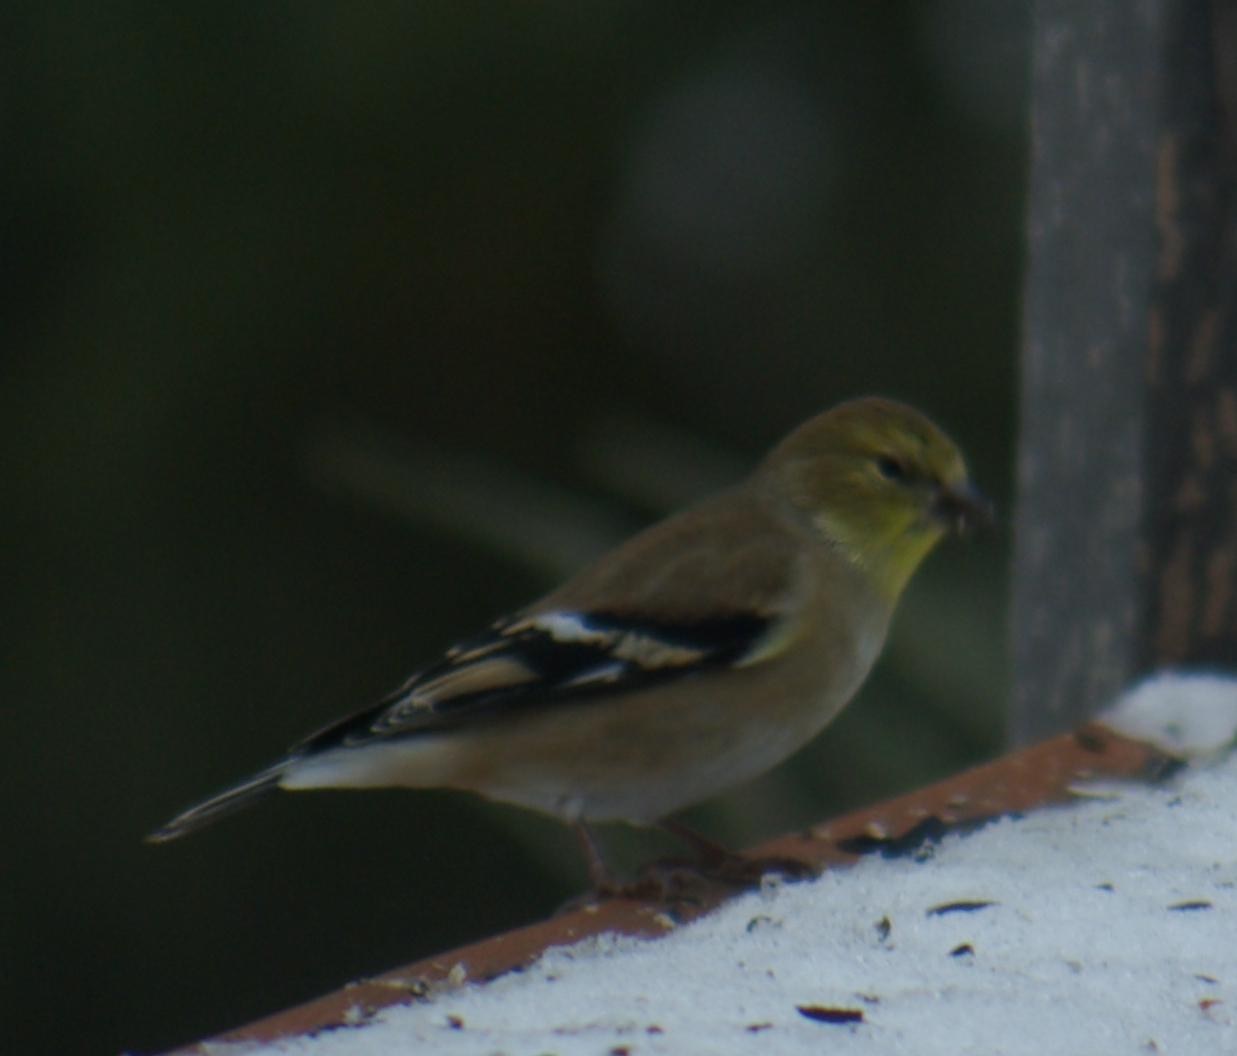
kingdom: Animalia
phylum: Chordata
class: Aves
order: Passeriformes
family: Fringillidae
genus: Spinus
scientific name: Spinus tristis
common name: American goldfinch
